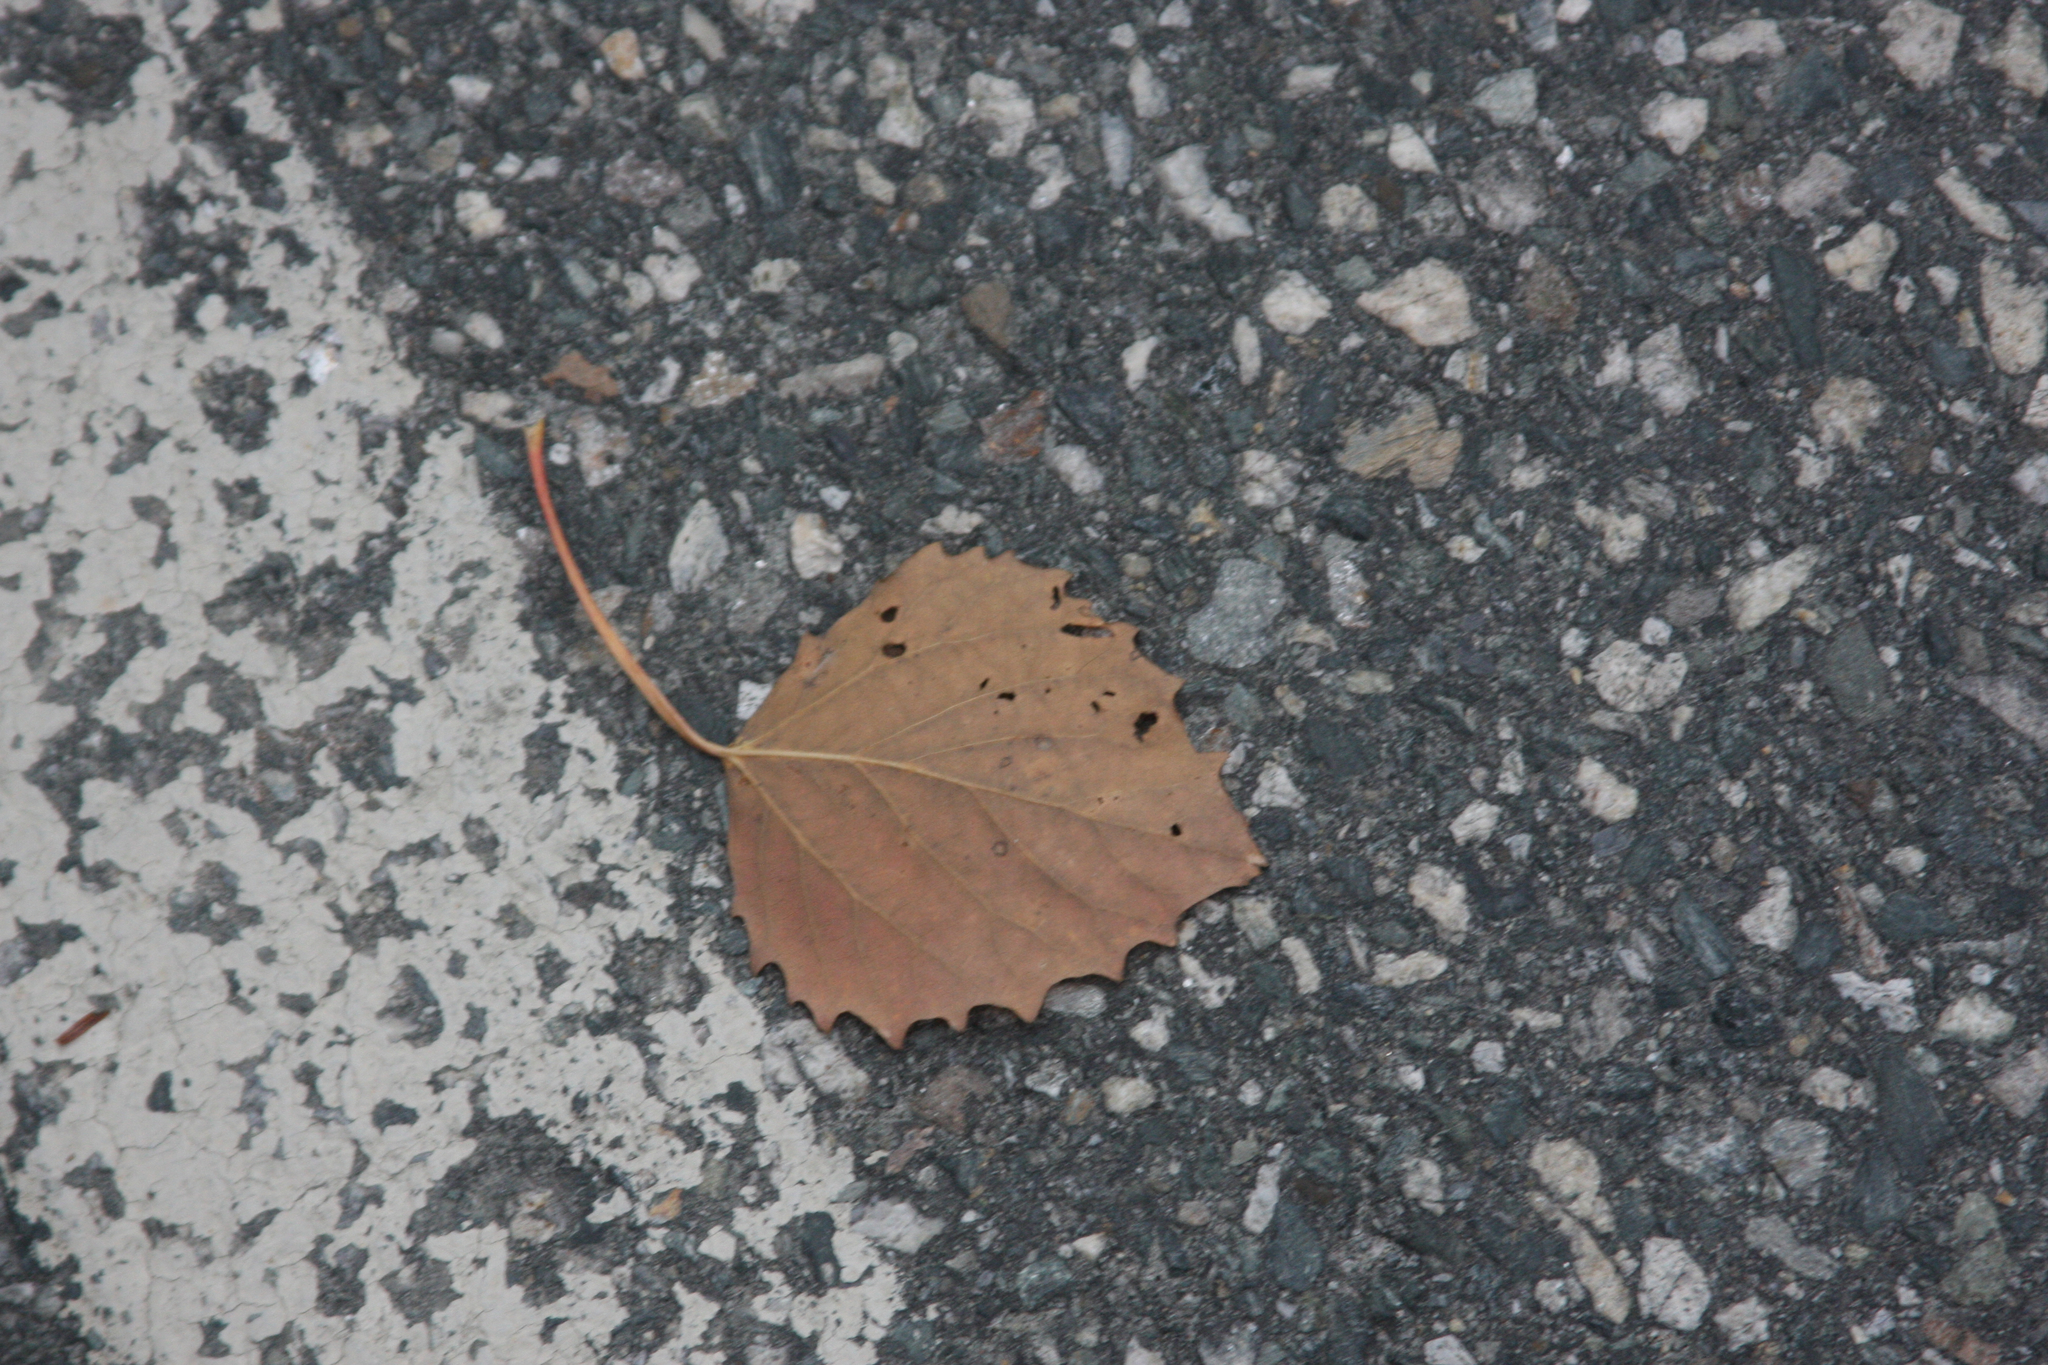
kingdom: Plantae
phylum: Tracheophyta
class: Magnoliopsida
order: Malpighiales
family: Salicaceae
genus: Populus
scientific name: Populus grandidentata
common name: Bigtooth aspen
